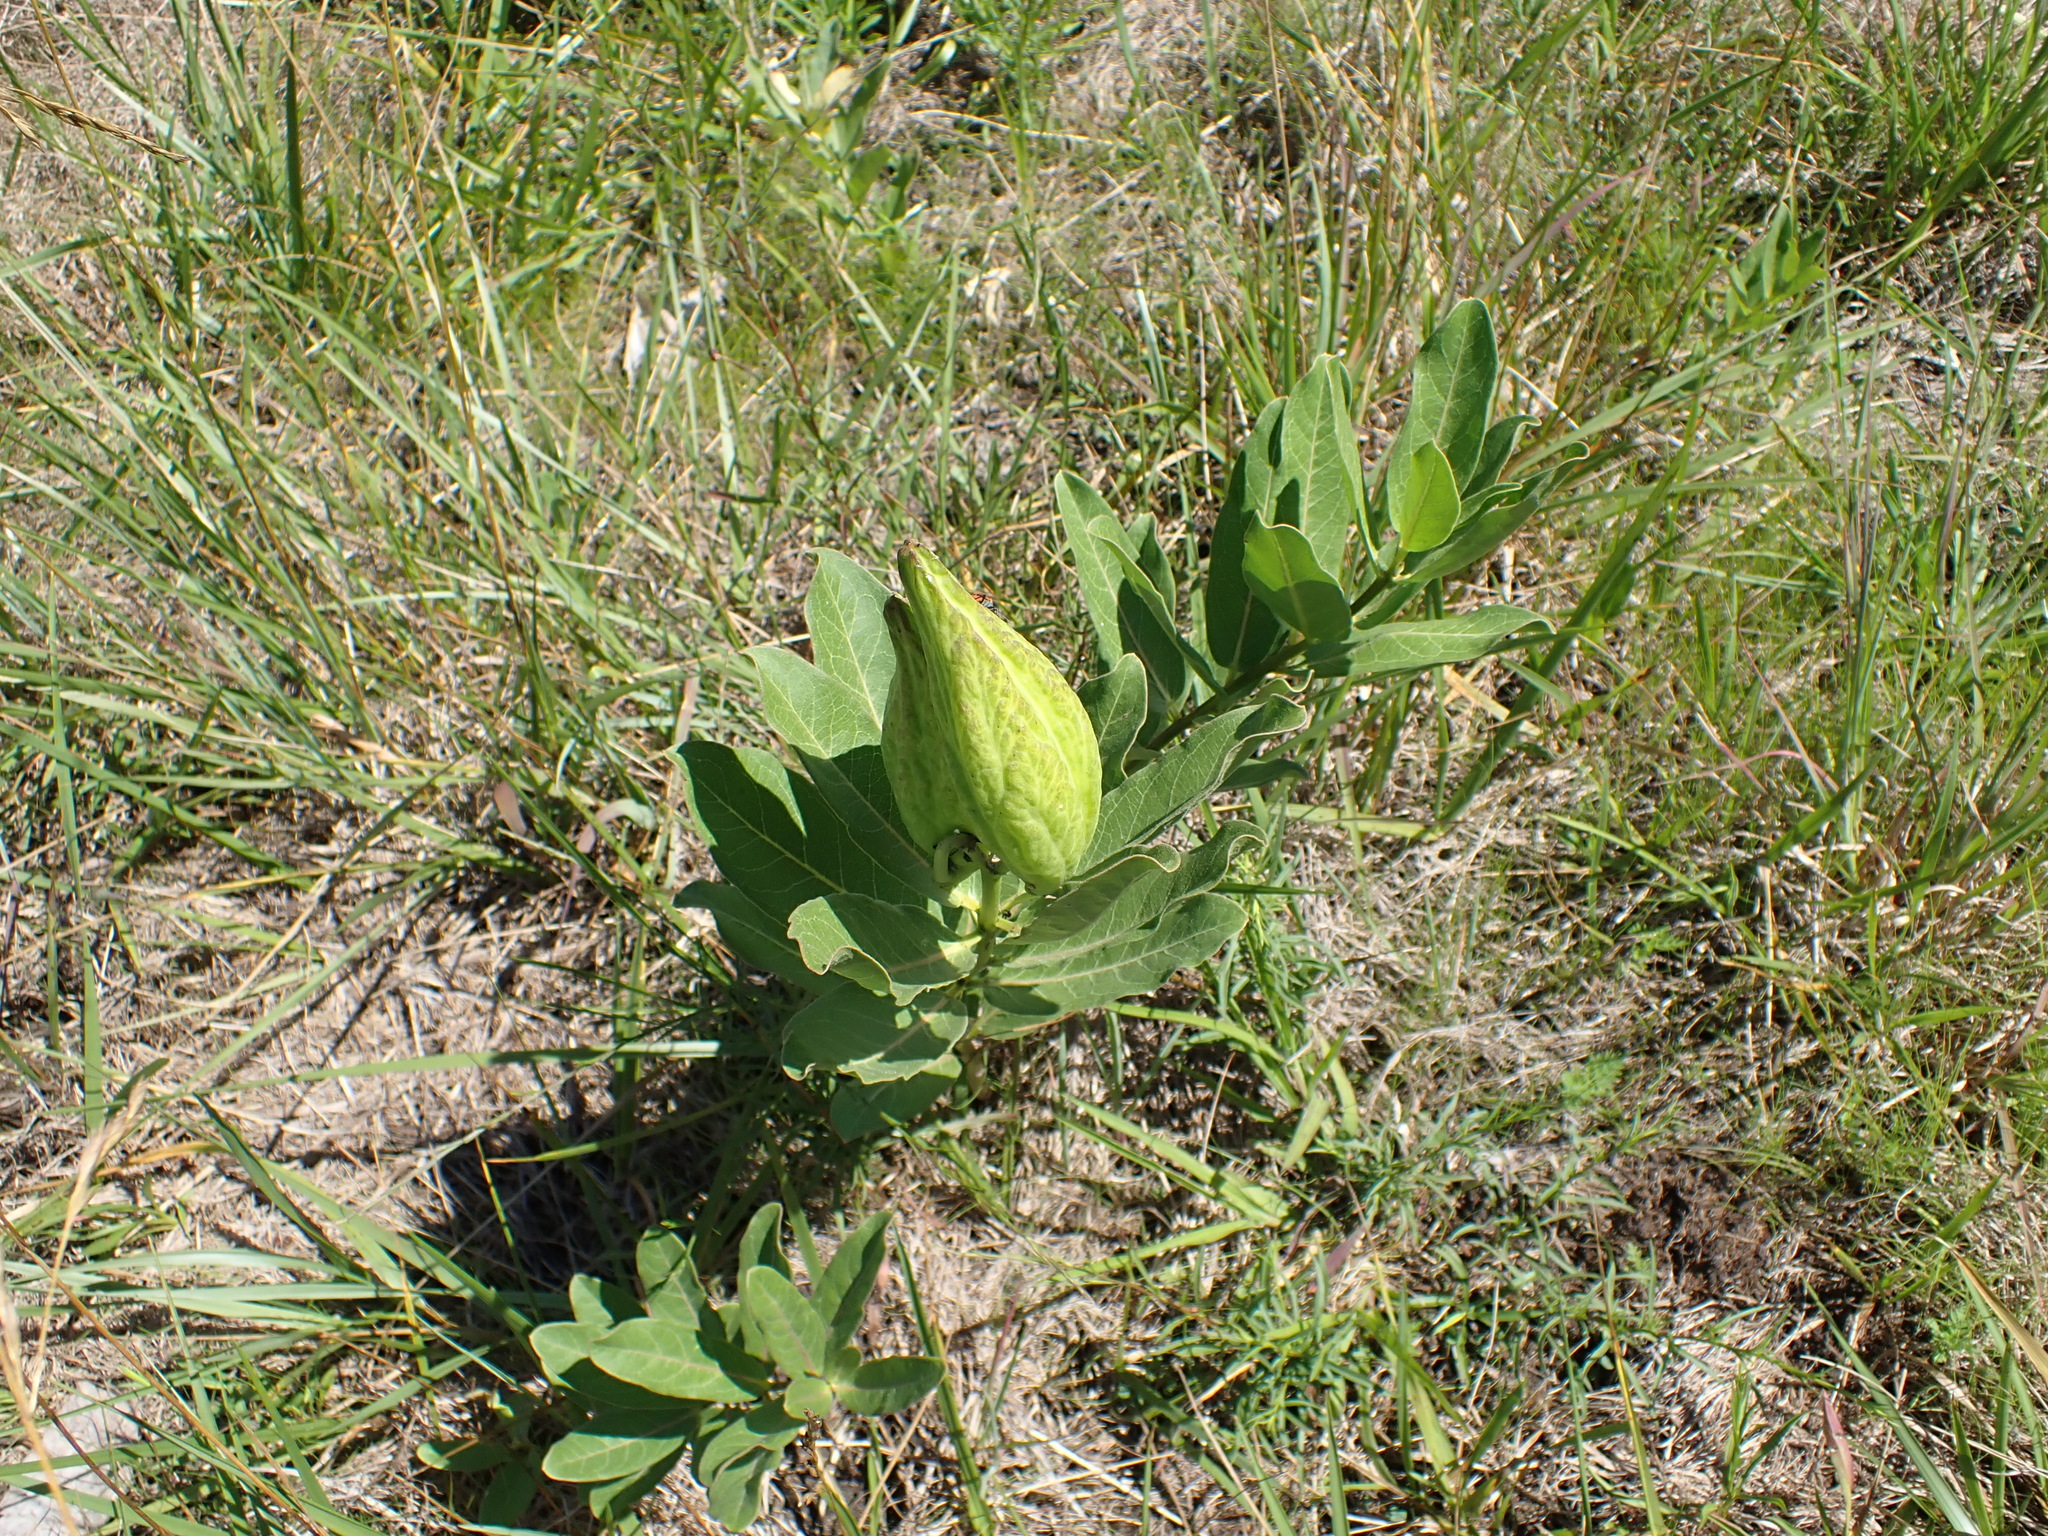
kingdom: Plantae
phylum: Tracheophyta
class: Magnoliopsida
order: Gentianales
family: Apocynaceae
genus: Asclepias
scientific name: Asclepias viridis
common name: Antelope-horns
